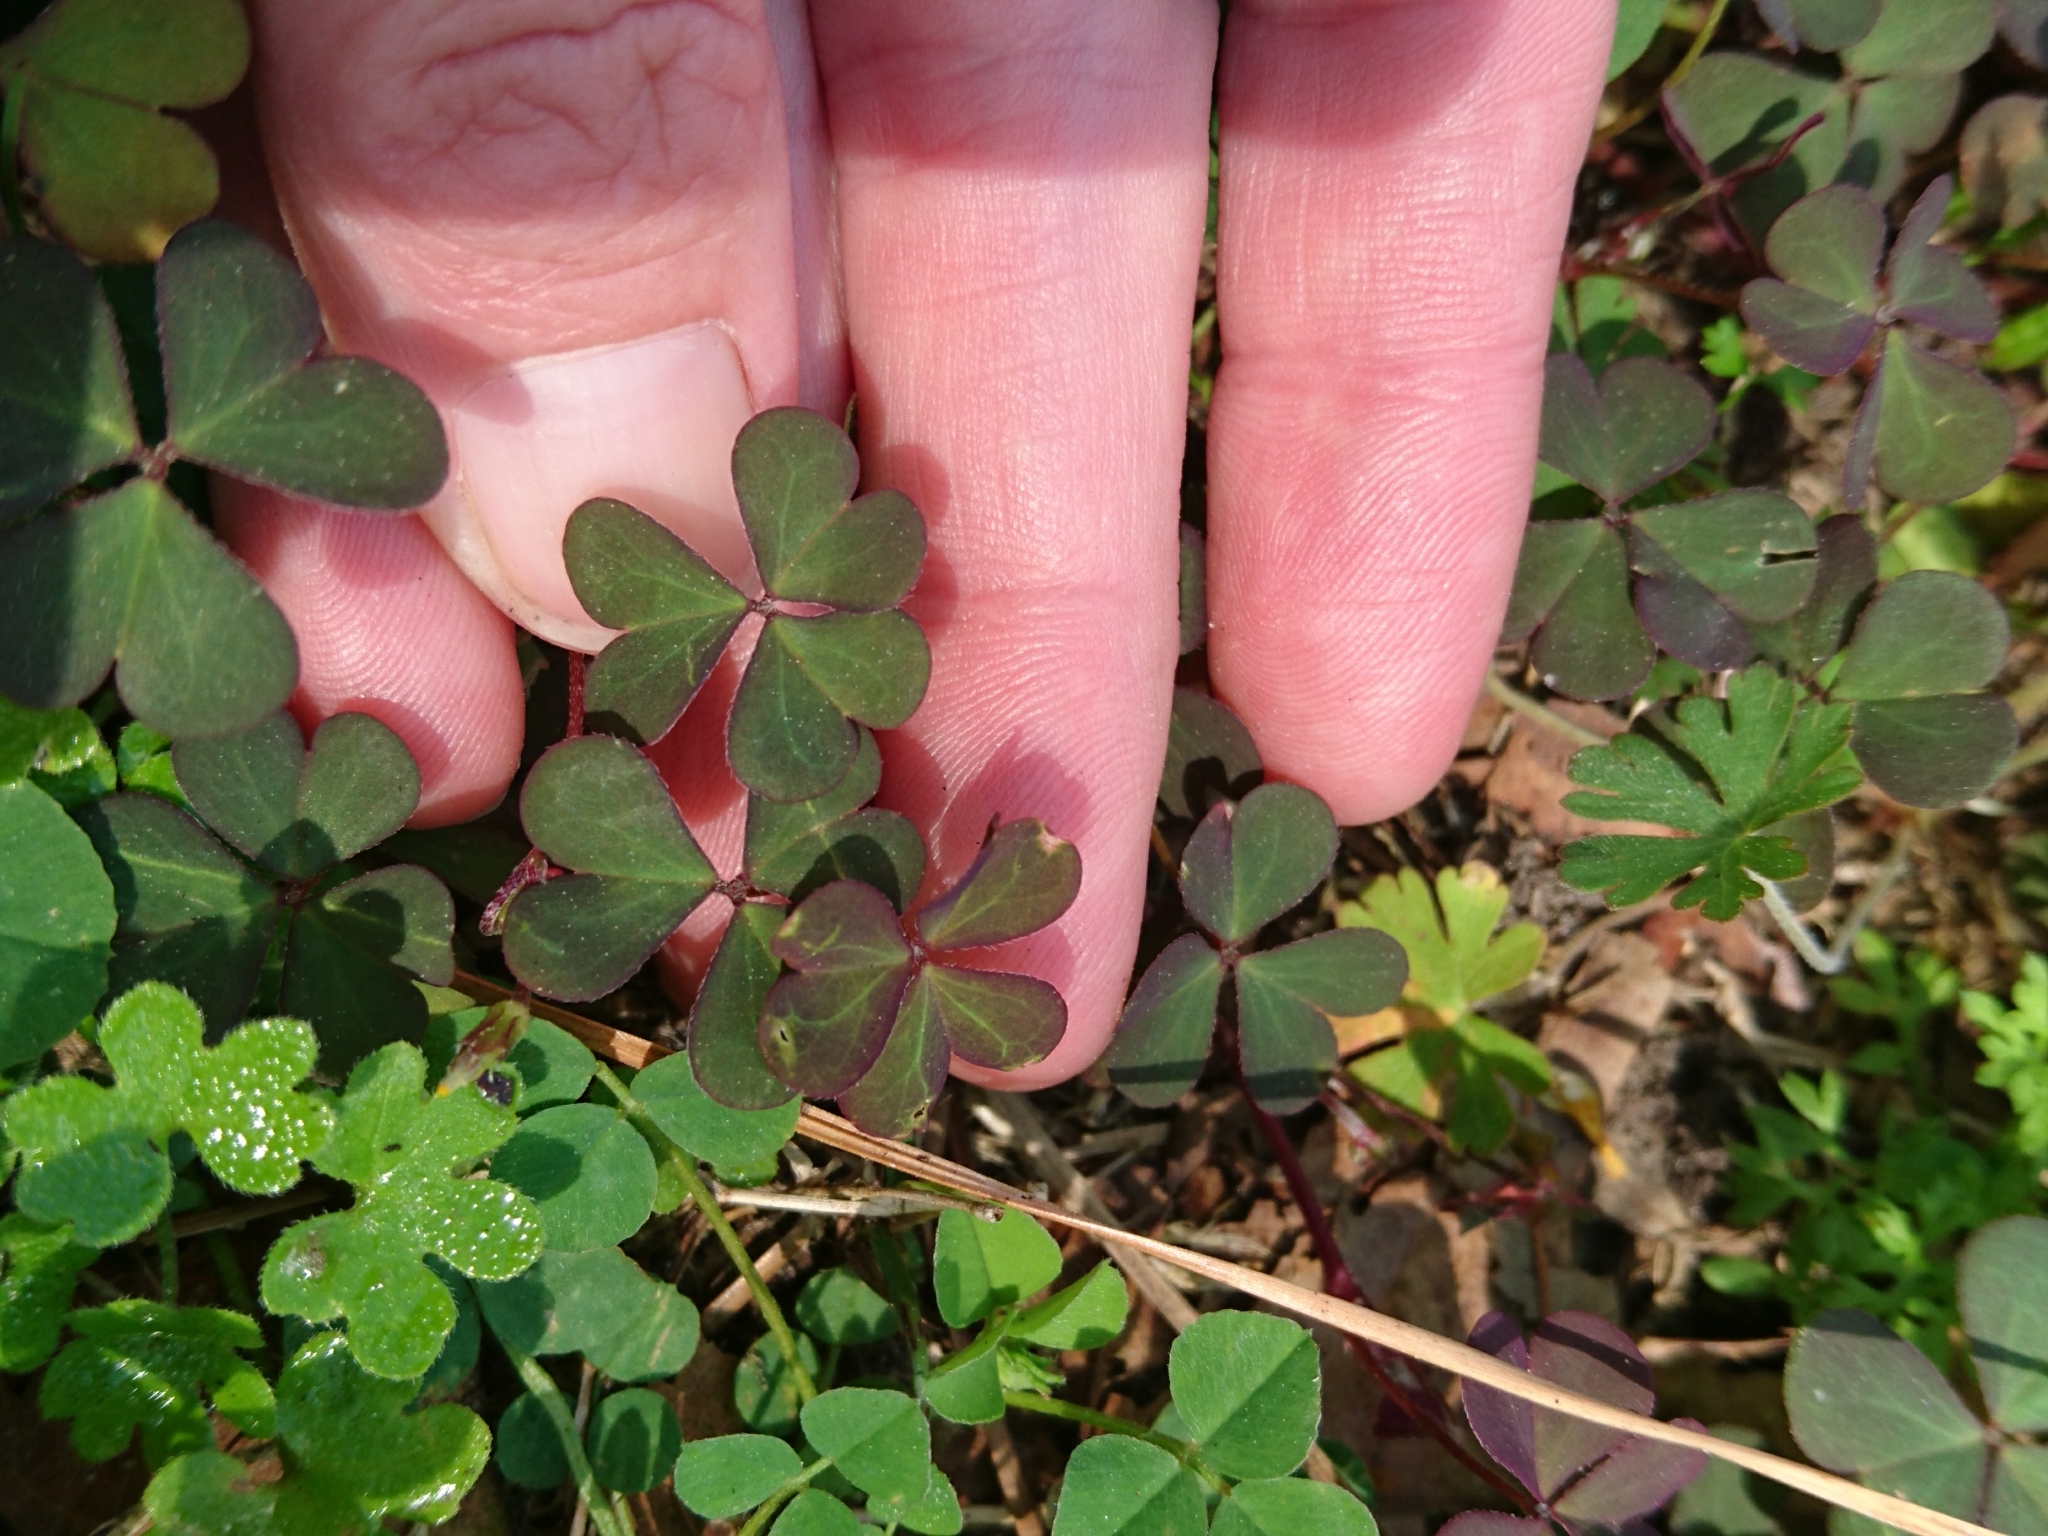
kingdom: Plantae
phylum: Tracheophyta
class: Magnoliopsida
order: Oxalidales
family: Oxalidaceae
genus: Oxalis
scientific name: Oxalis corniculata
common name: Procumbent yellow-sorrel
